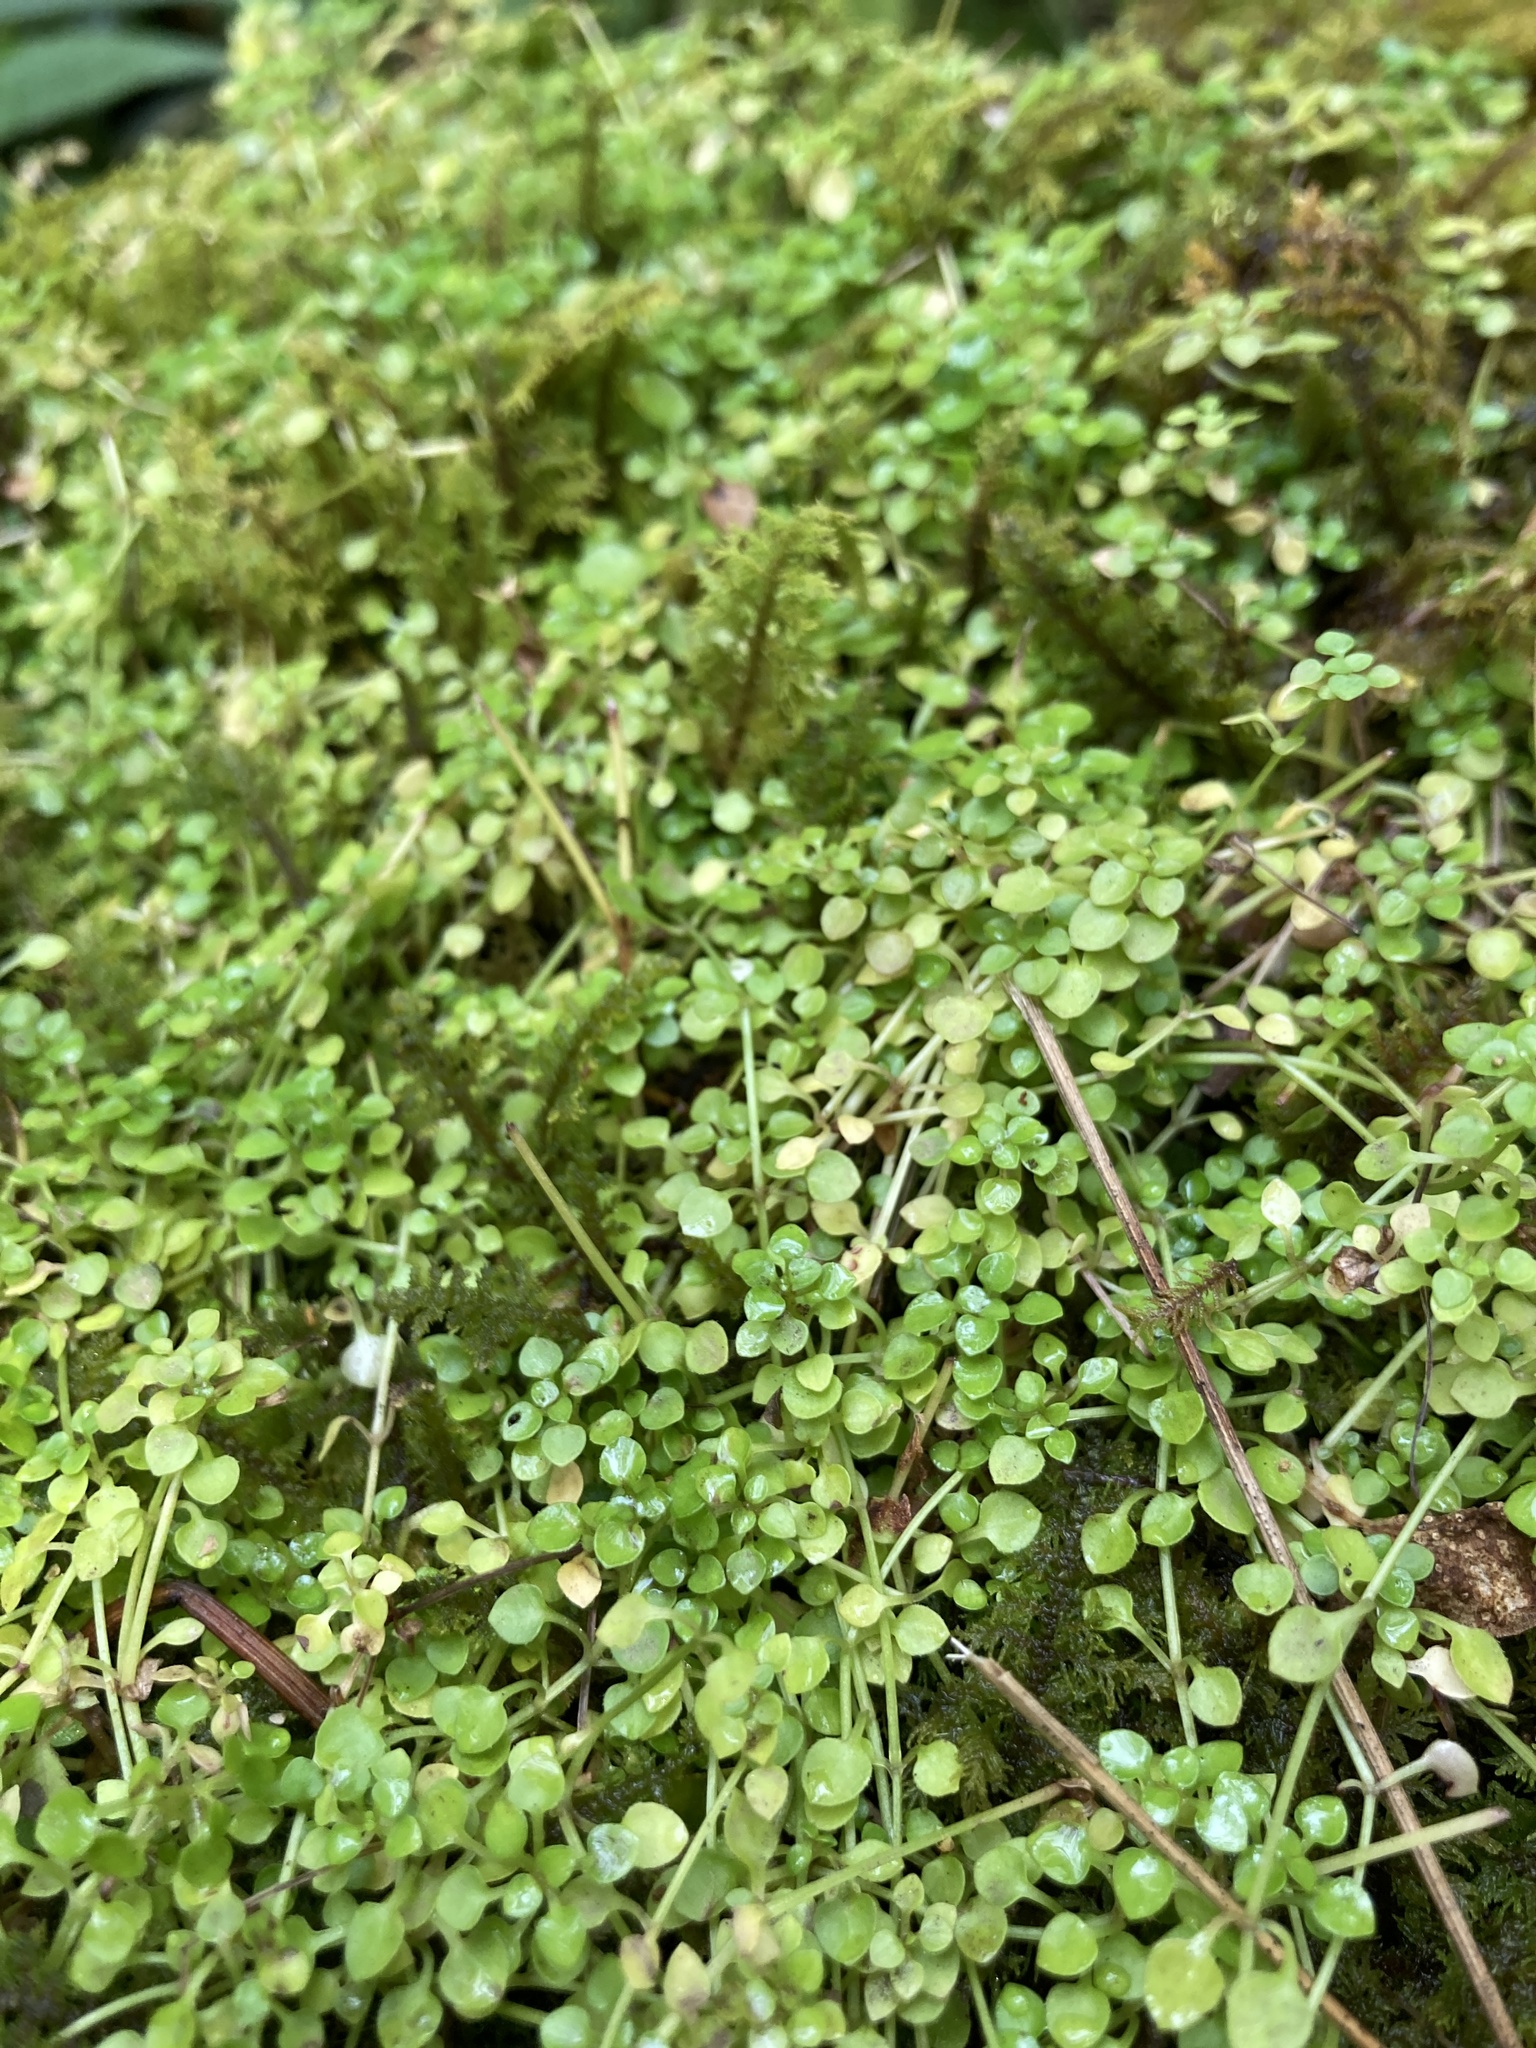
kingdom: Plantae
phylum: Tracheophyta
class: Magnoliopsida
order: Gentianales
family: Rubiaceae
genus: Houstonia
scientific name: Houstonia serpyllifolia
